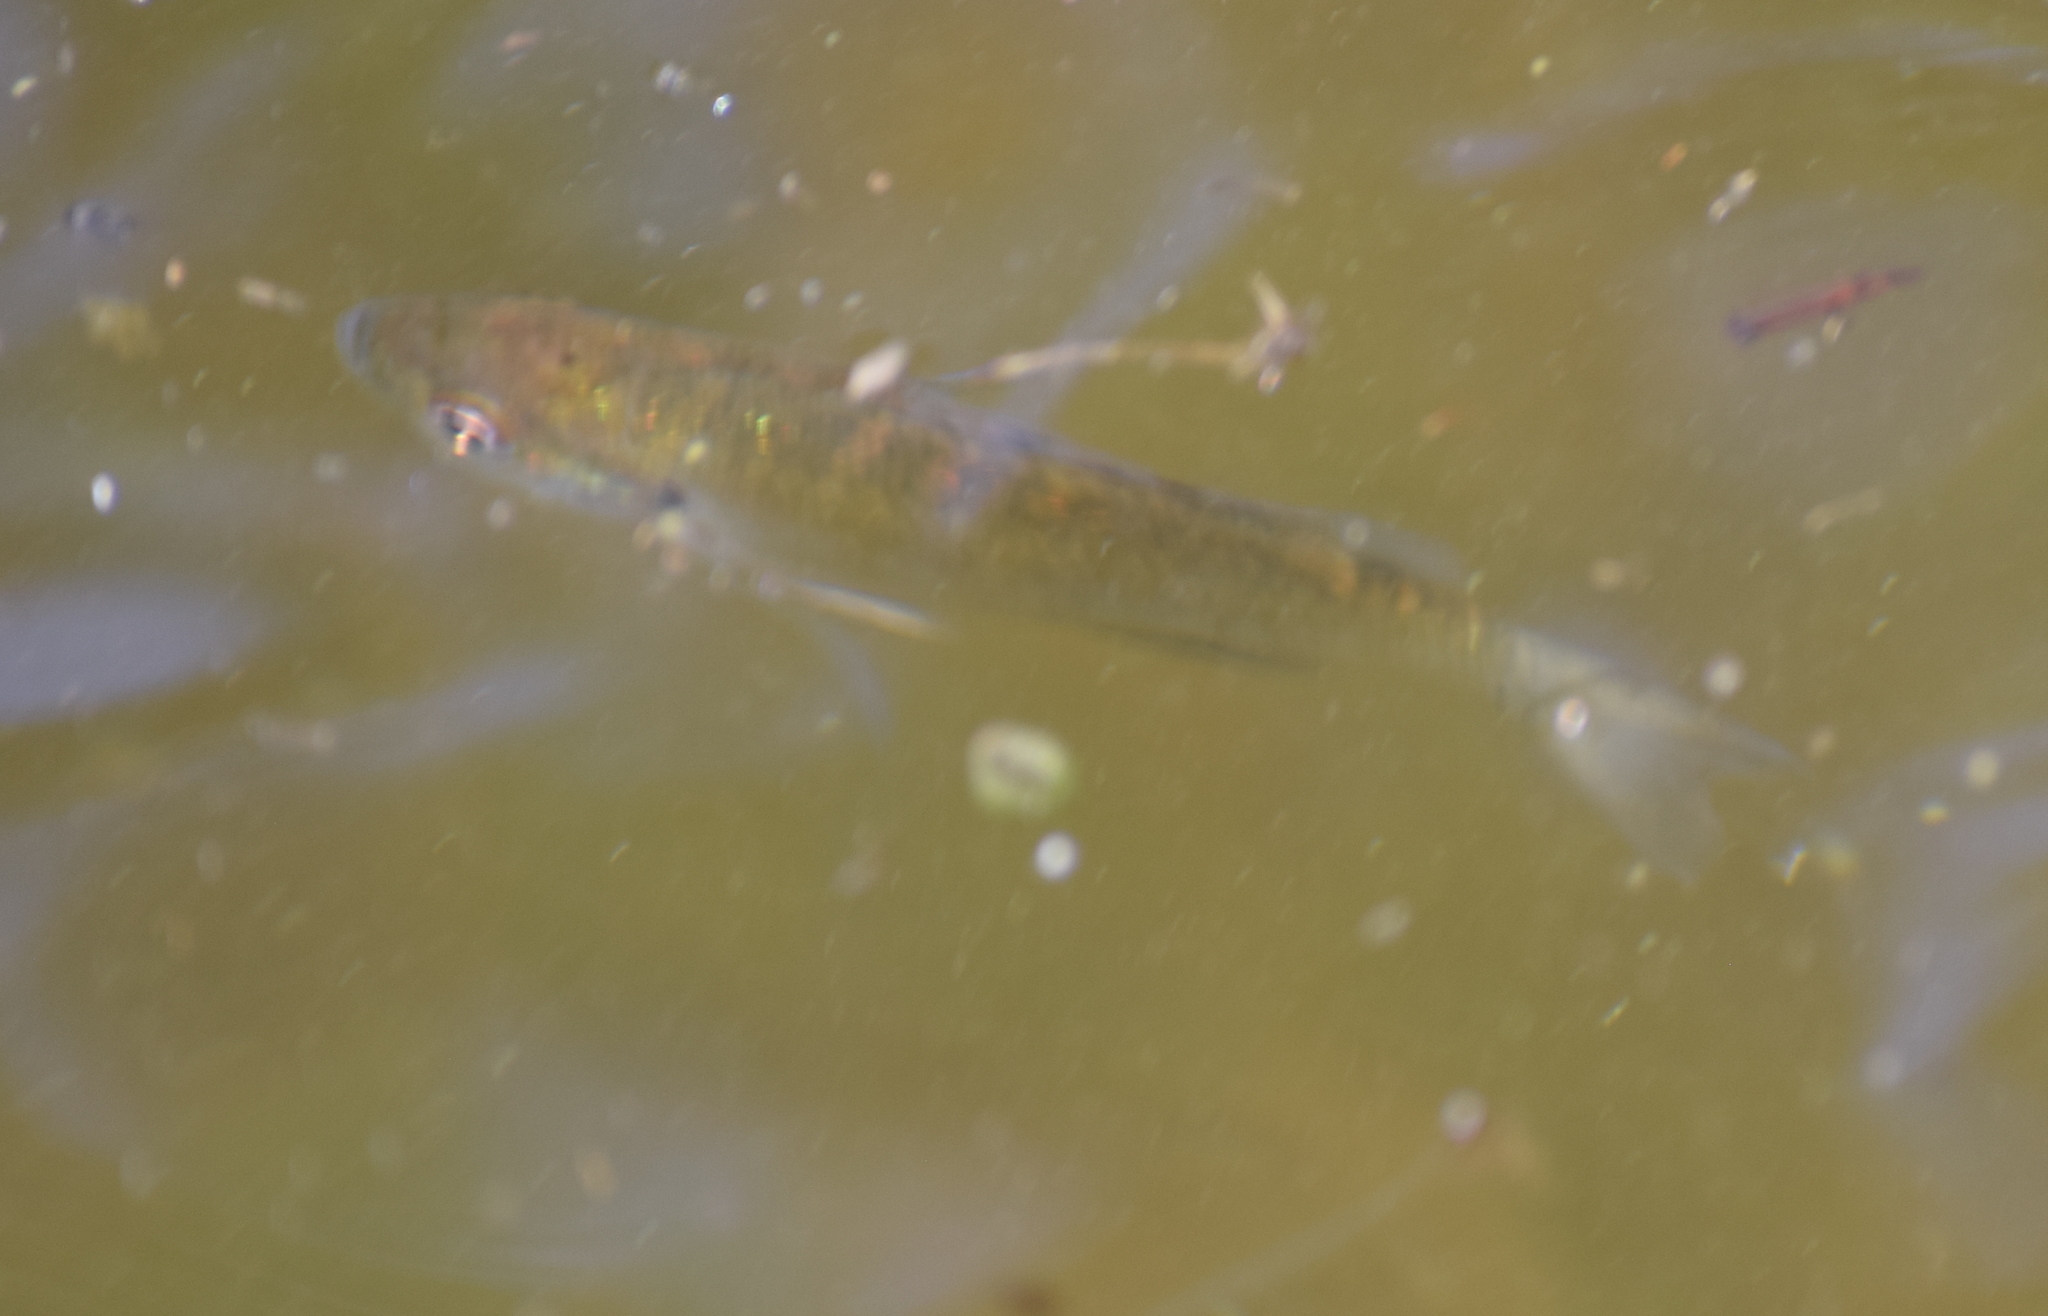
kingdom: Animalia
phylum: Chordata
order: Perciformes
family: Centrarchidae
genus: Lepomis
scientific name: Lepomis macrochirus
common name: Bluegill
